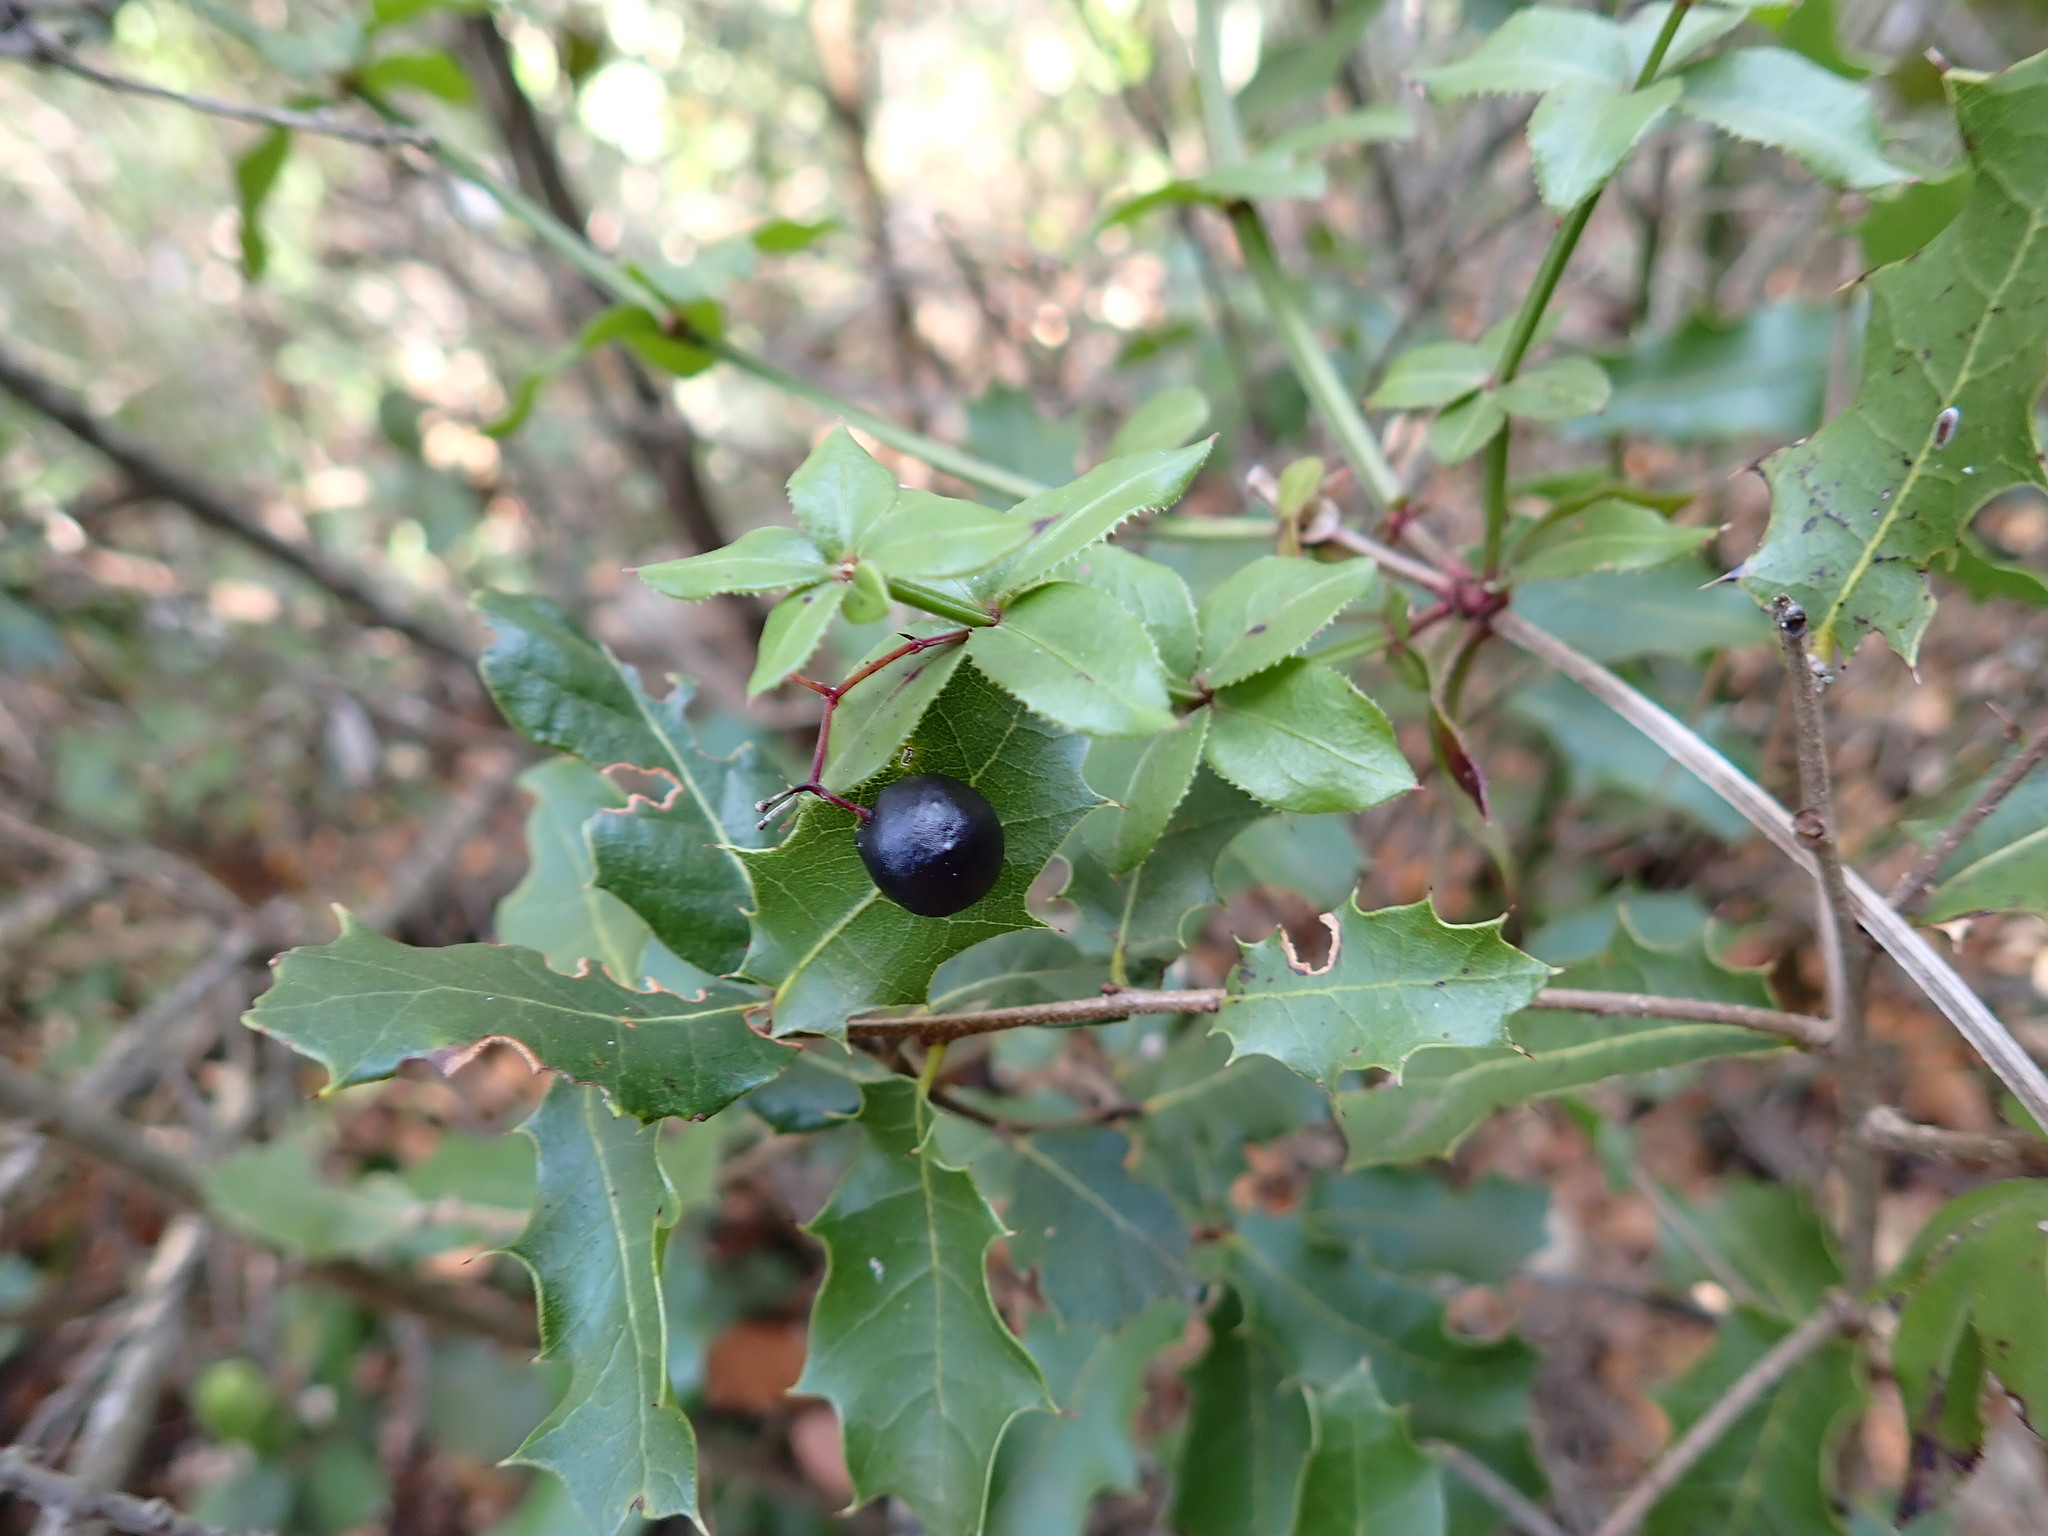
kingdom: Plantae
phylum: Tracheophyta
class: Magnoliopsida
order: Gentianales
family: Rubiaceae
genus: Rubia
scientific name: Rubia peregrina
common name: Wild madder
